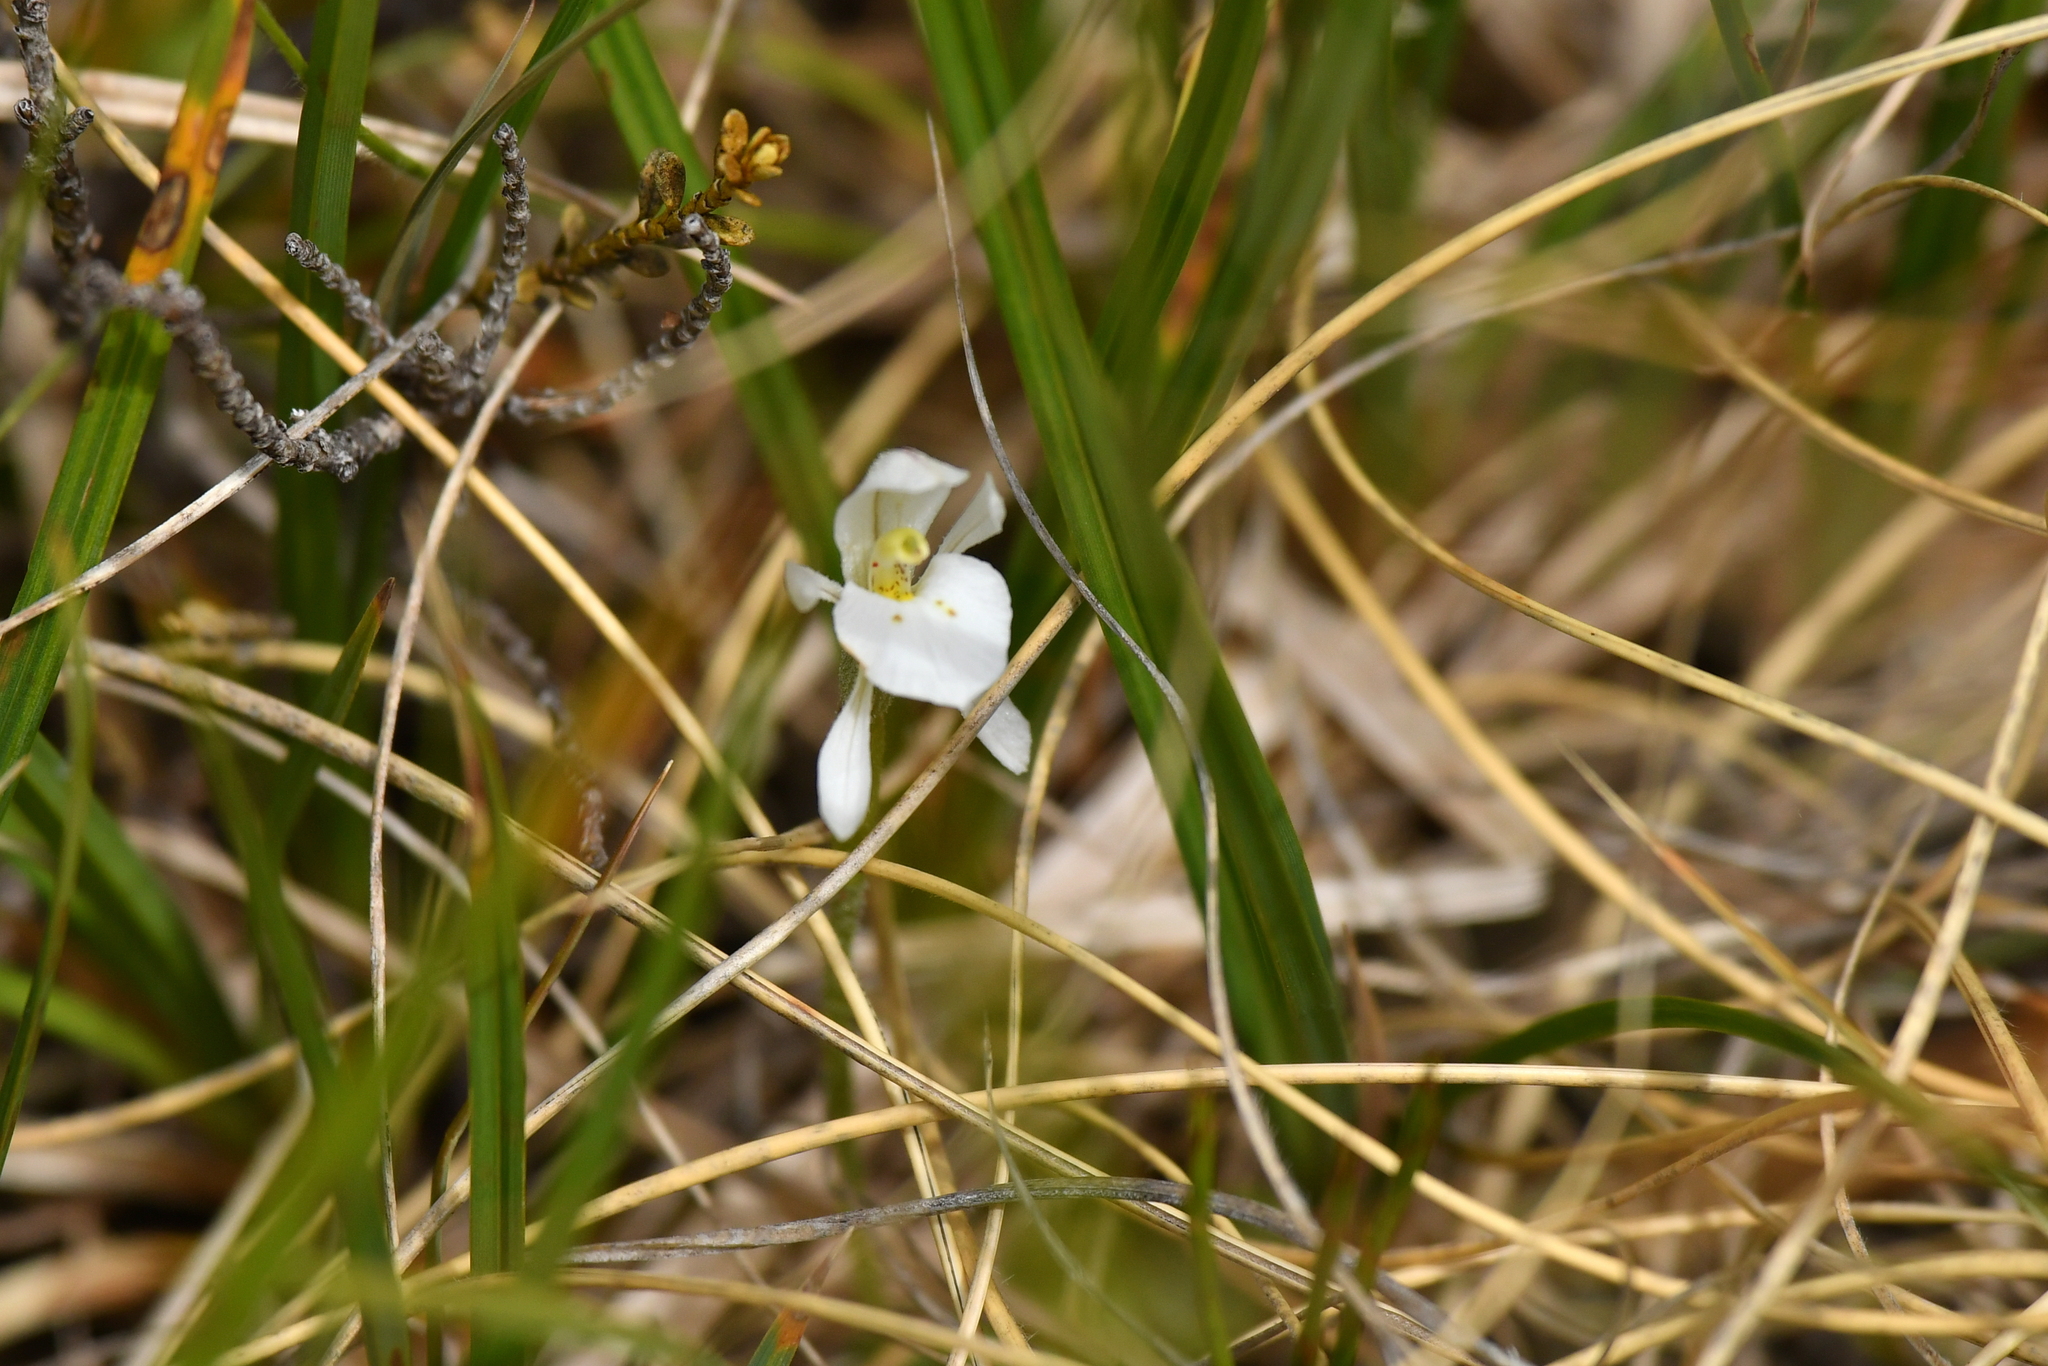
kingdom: Plantae
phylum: Tracheophyta
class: Liliopsida
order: Asparagales
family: Orchidaceae
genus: Aporostylis
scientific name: Aporostylis bifolia
